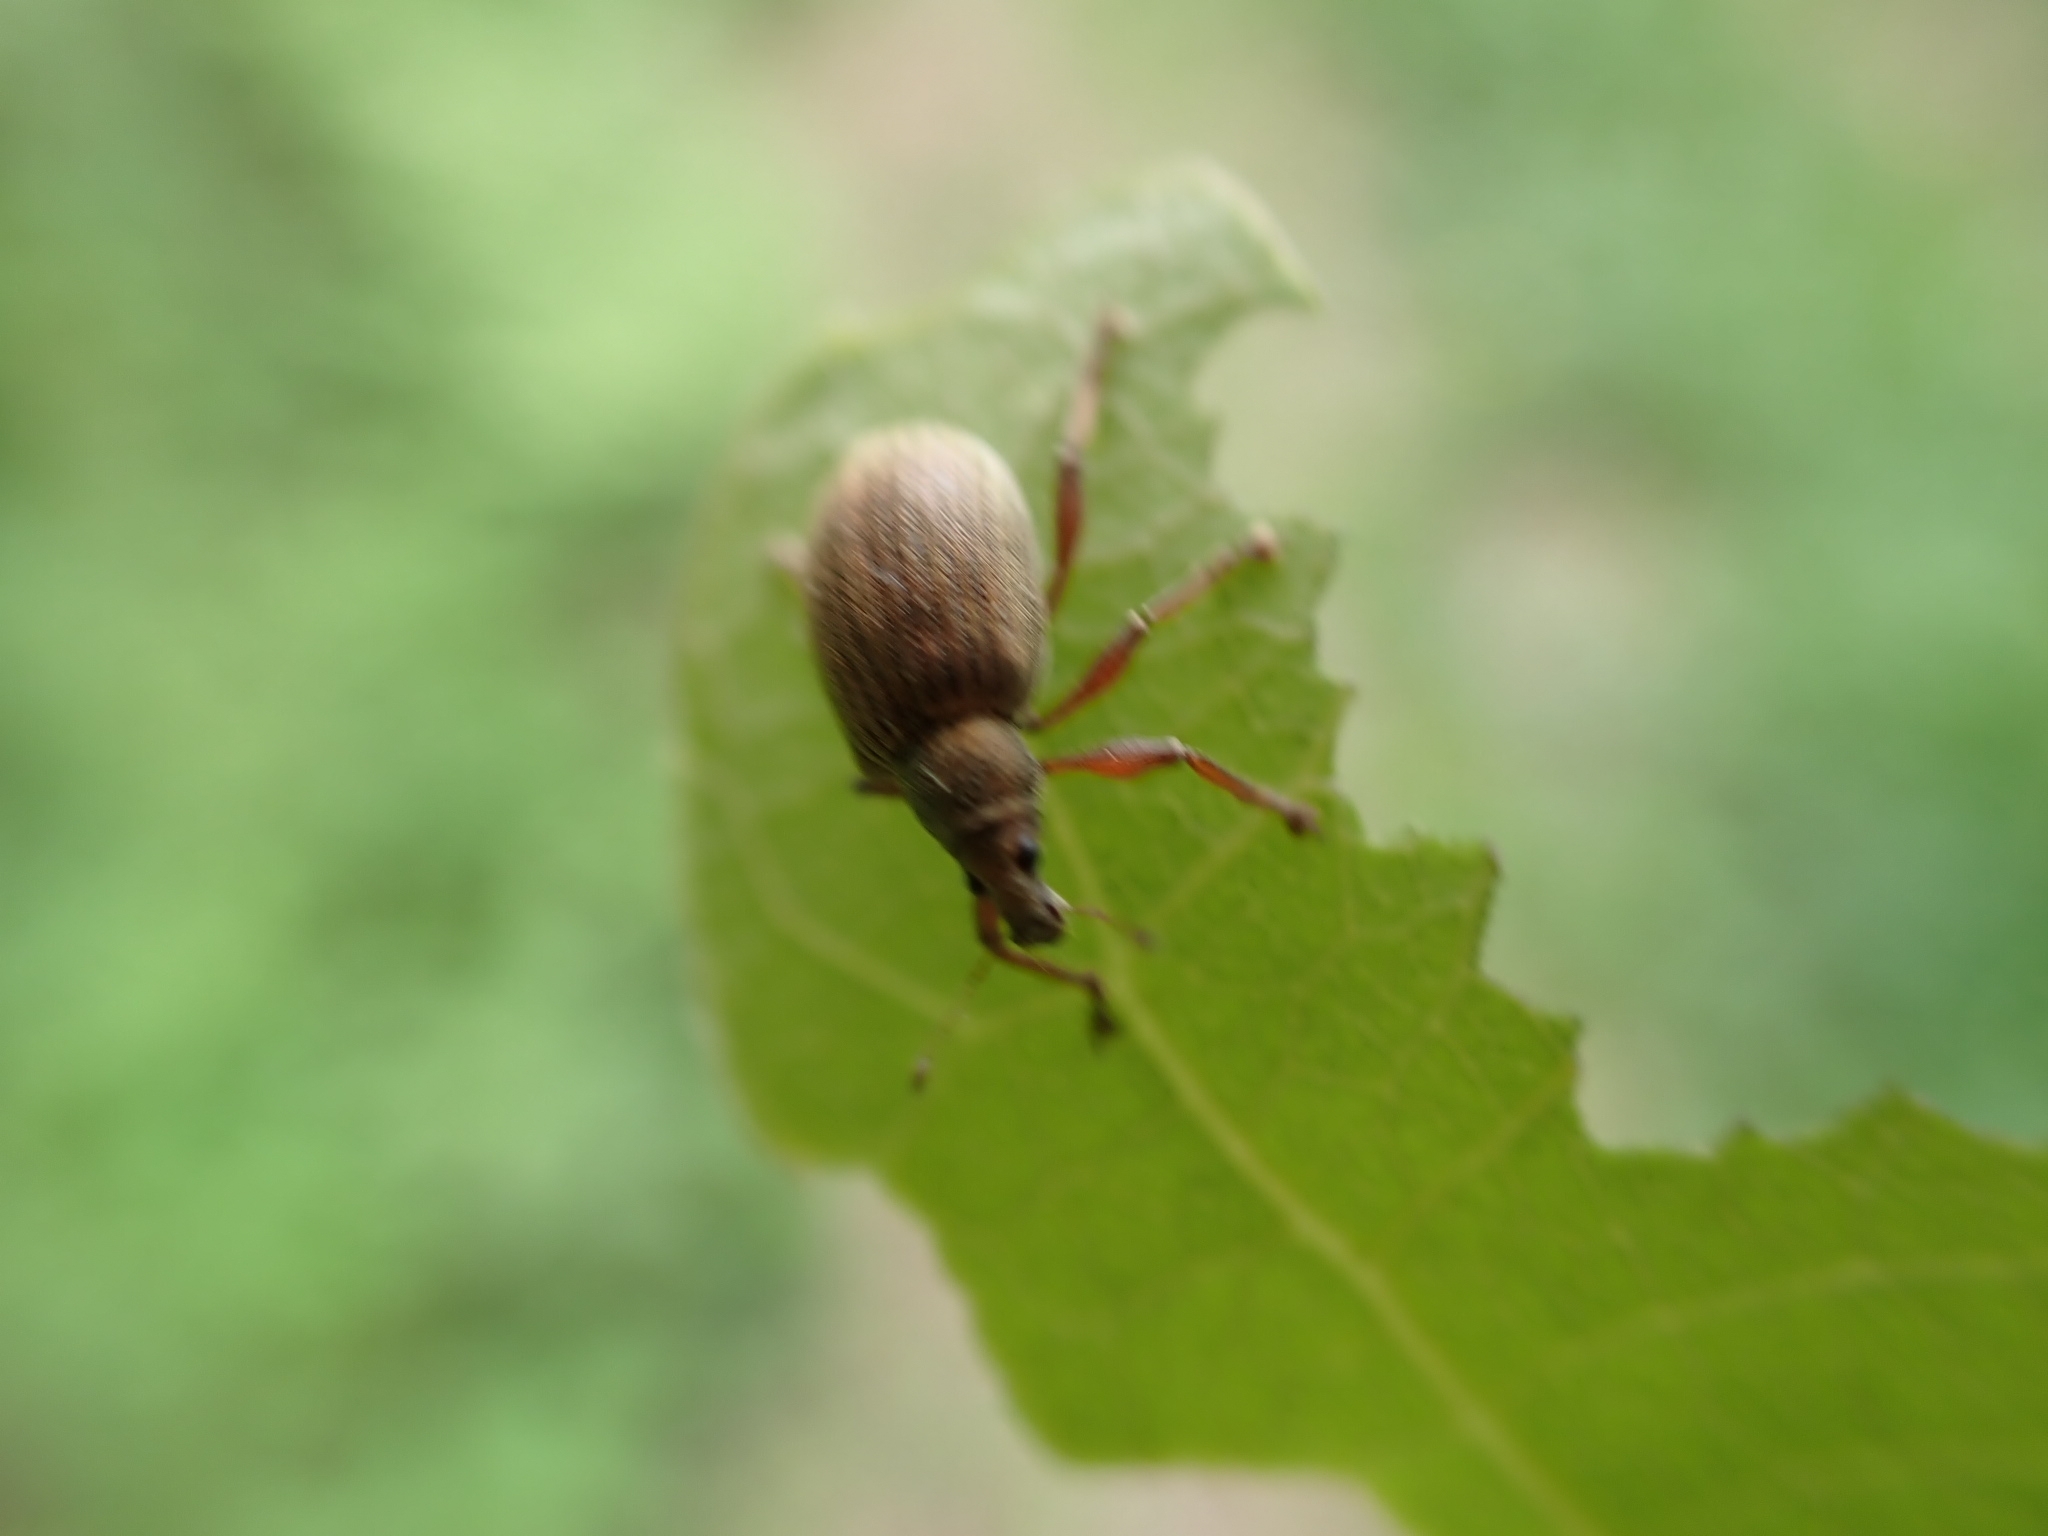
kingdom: Animalia
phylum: Arthropoda
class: Insecta
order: Coleoptera
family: Curculionidae
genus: Polydrusus
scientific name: Polydrusus mollis
